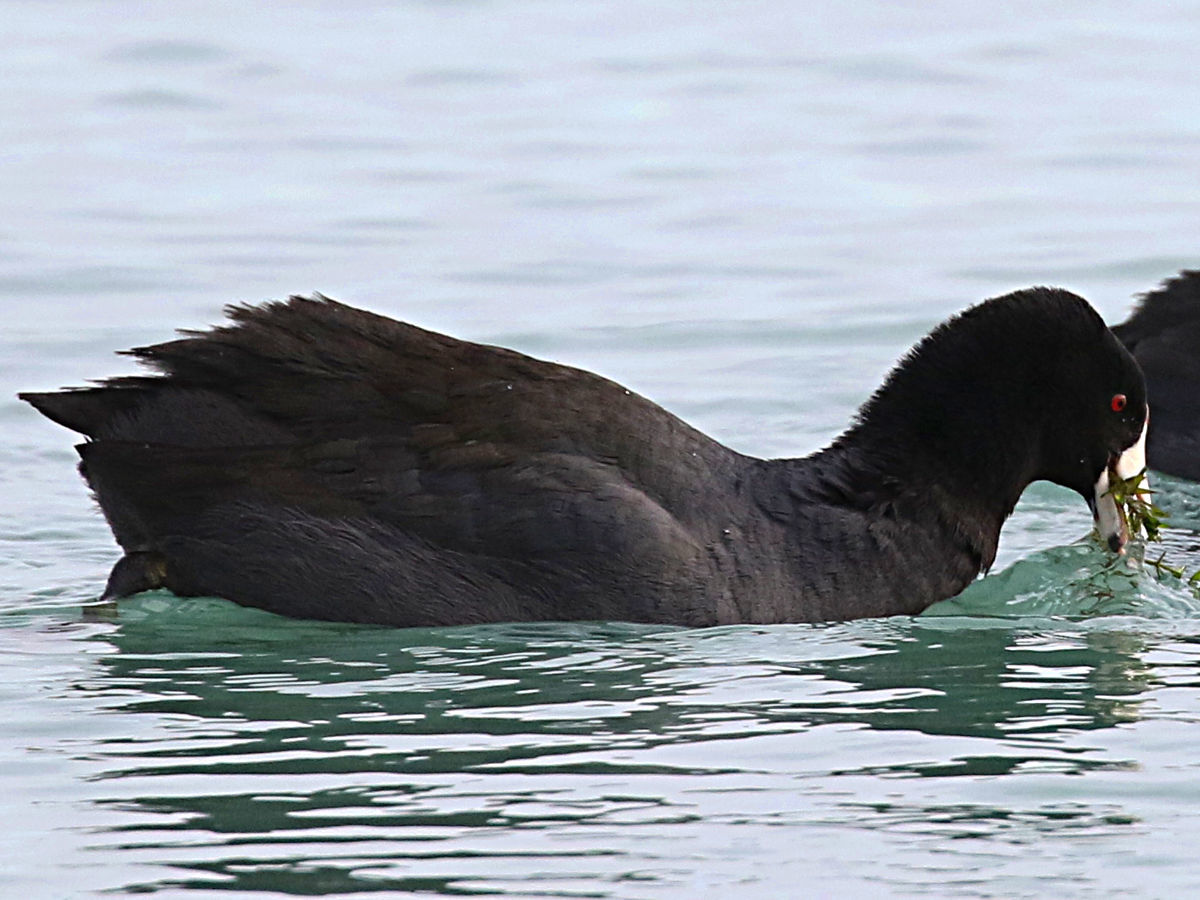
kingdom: Animalia
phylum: Chordata
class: Aves
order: Gruiformes
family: Rallidae
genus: Fulica
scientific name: Fulica americana
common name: American coot
